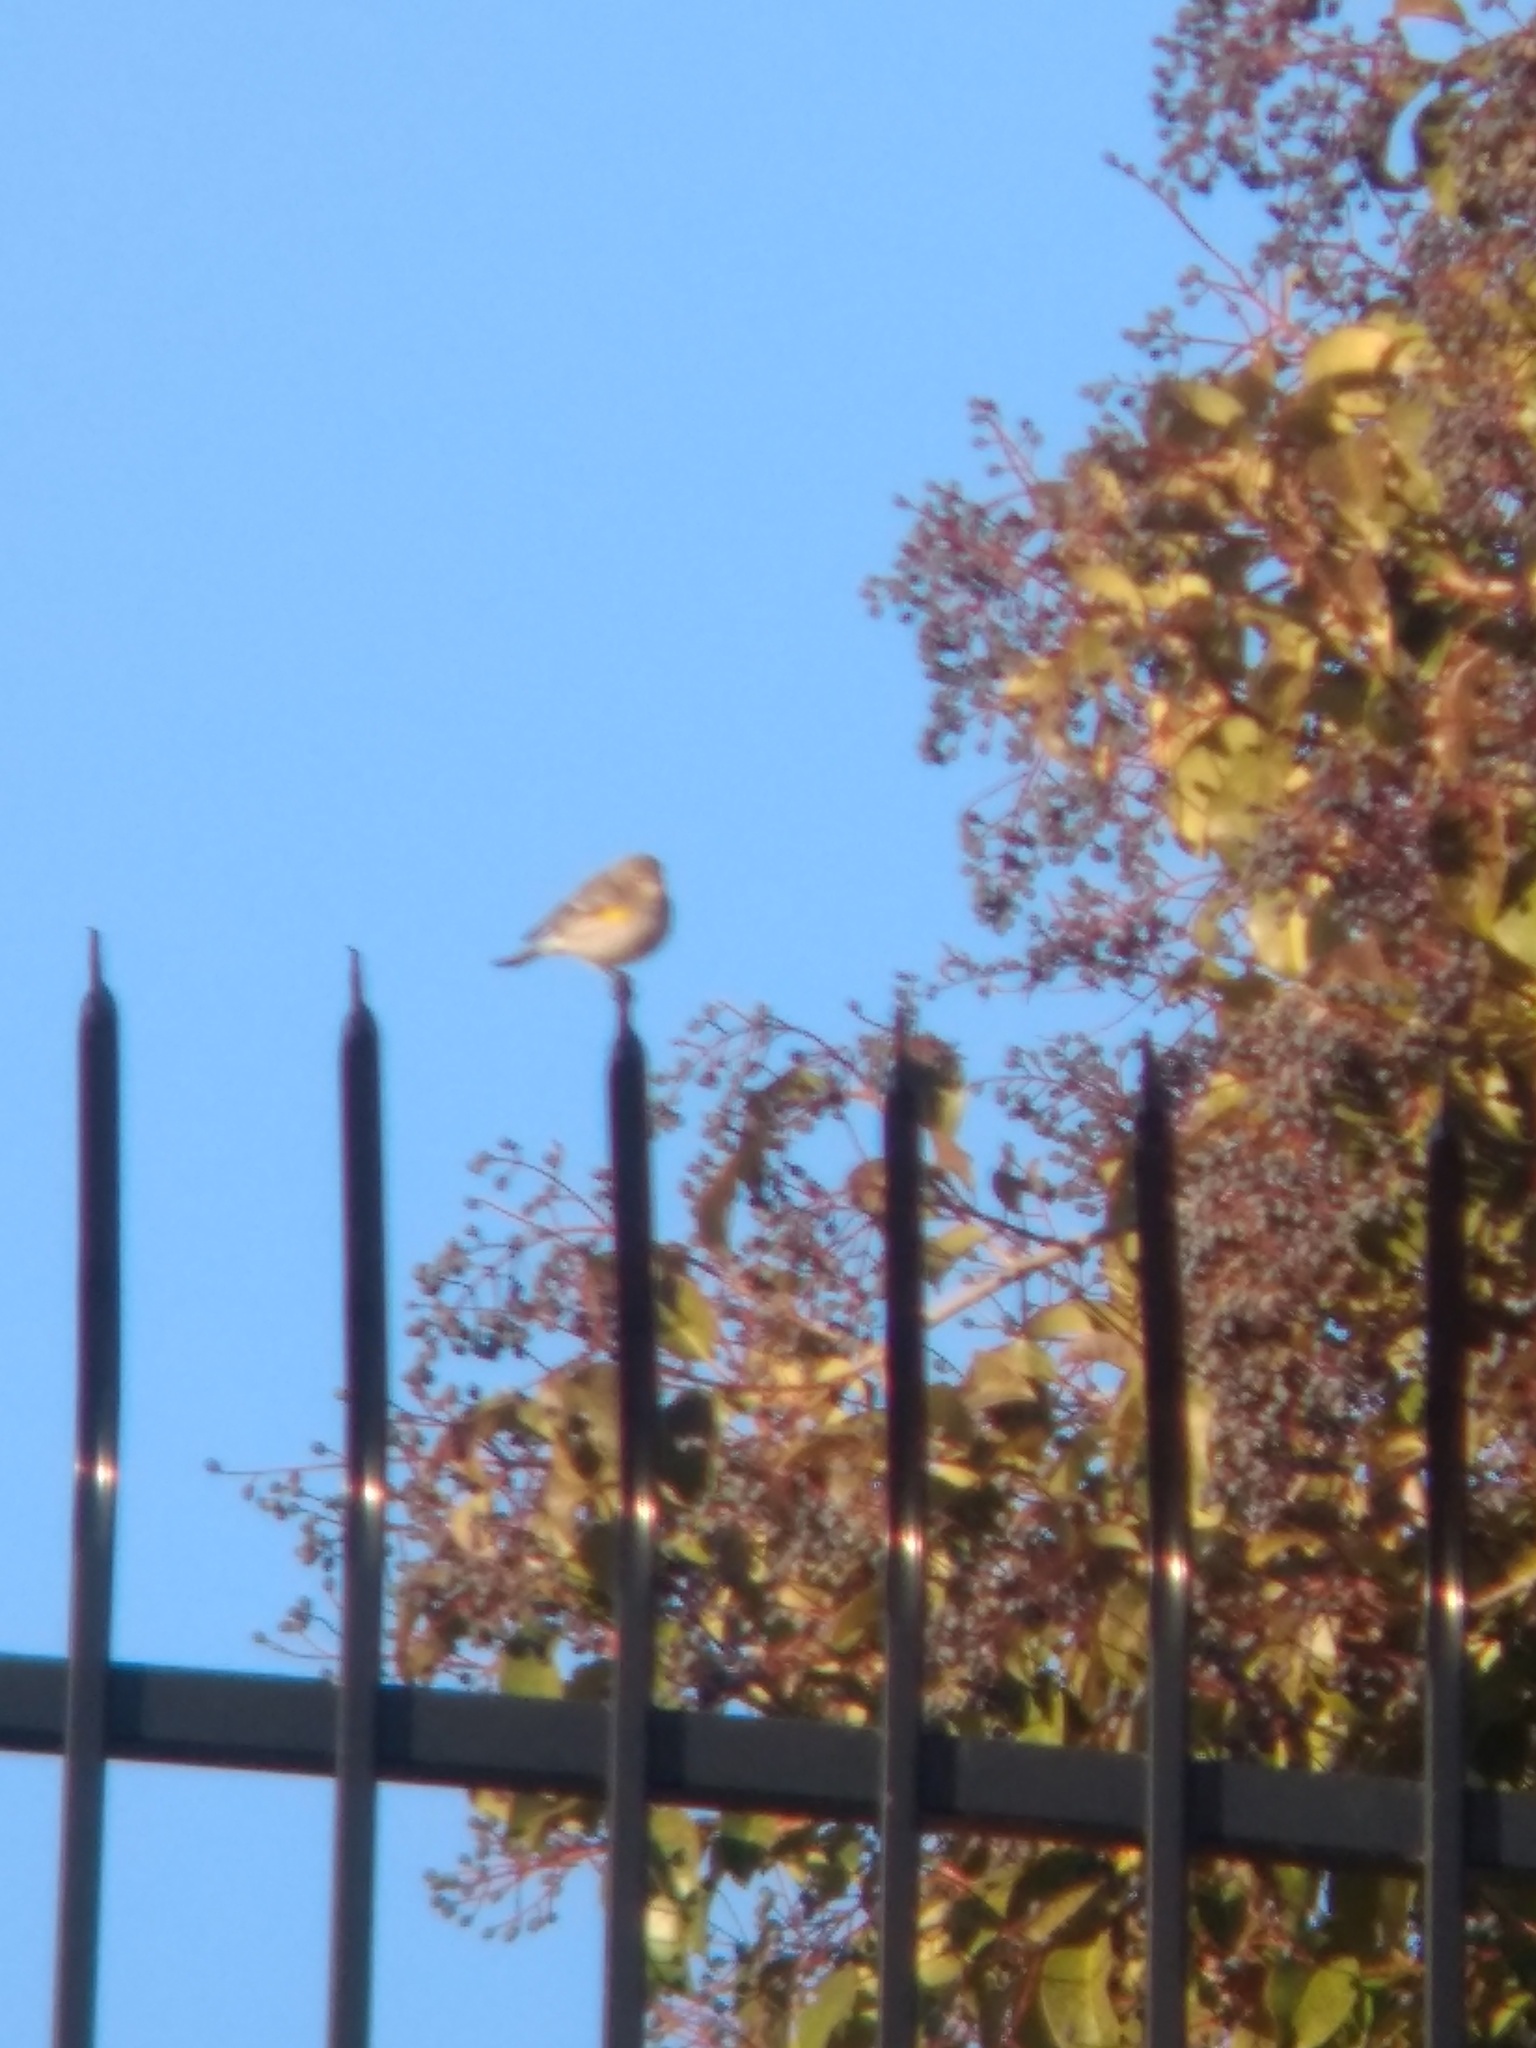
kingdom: Animalia
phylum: Chordata
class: Aves
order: Passeriformes
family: Parulidae
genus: Setophaga
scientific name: Setophaga coronata
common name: Myrtle warbler
